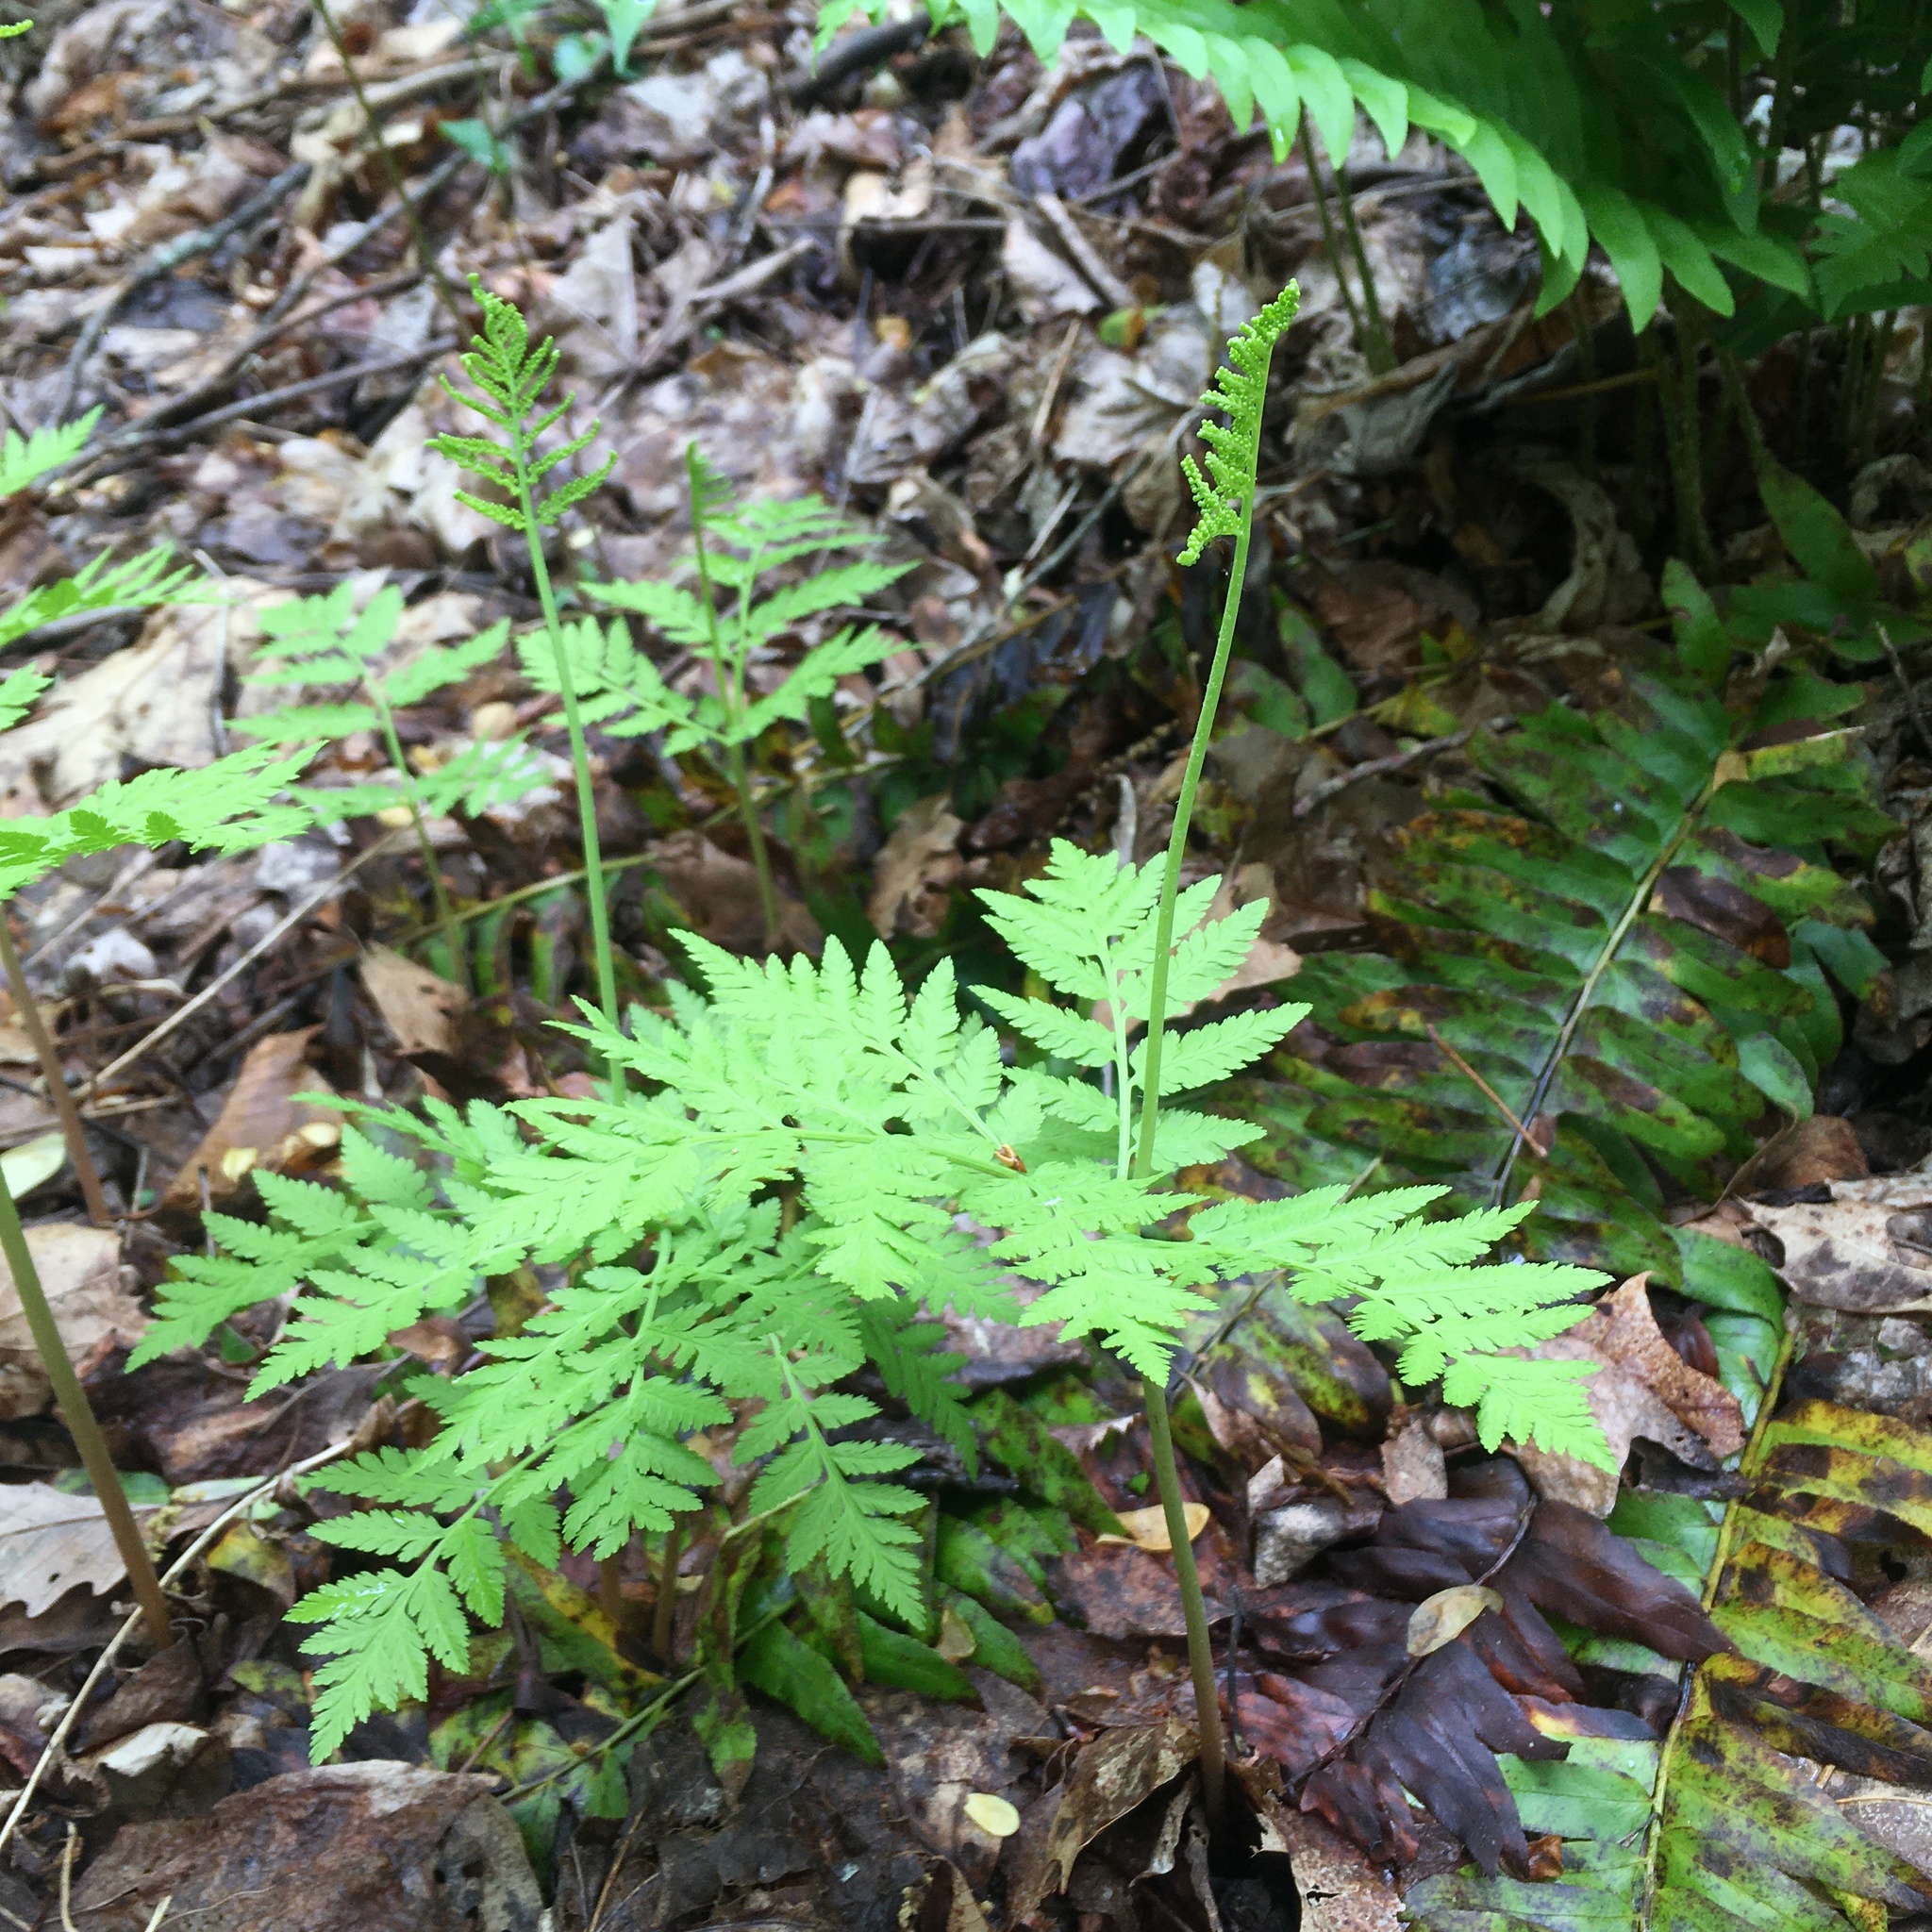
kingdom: Plantae
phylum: Tracheophyta
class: Polypodiopsida
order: Ophioglossales
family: Ophioglossaceae
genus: Botrypus
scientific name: Botrypus virginianus
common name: Common grapefern
